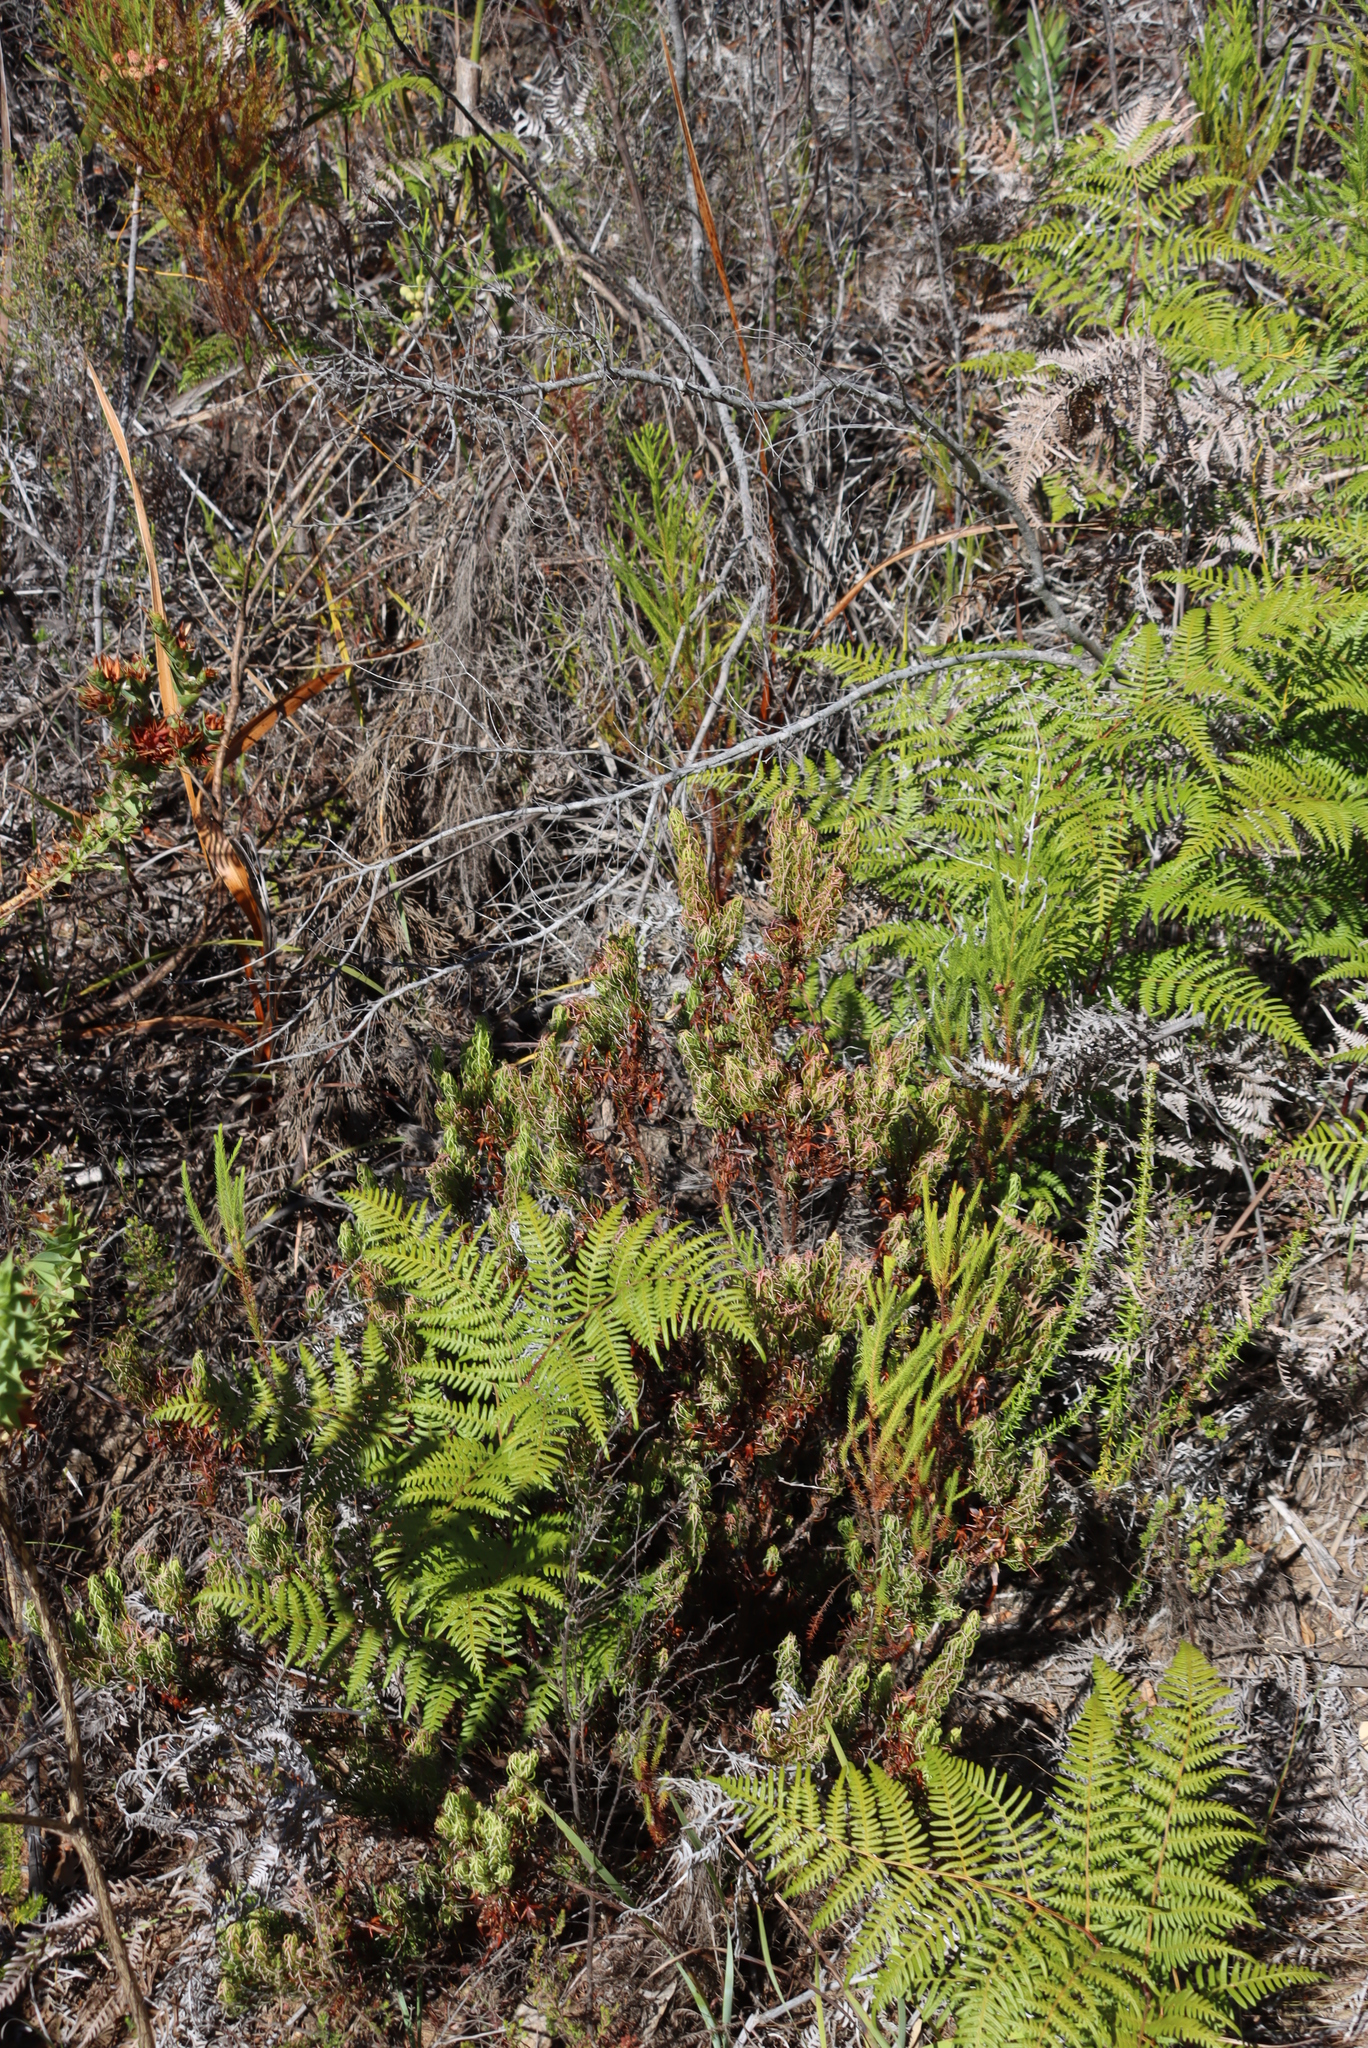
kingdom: Plantae
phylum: Tracheophyta
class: Magnoliopsida
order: Ericales
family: Ericaceae
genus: Erica
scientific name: Erica plukenetii
